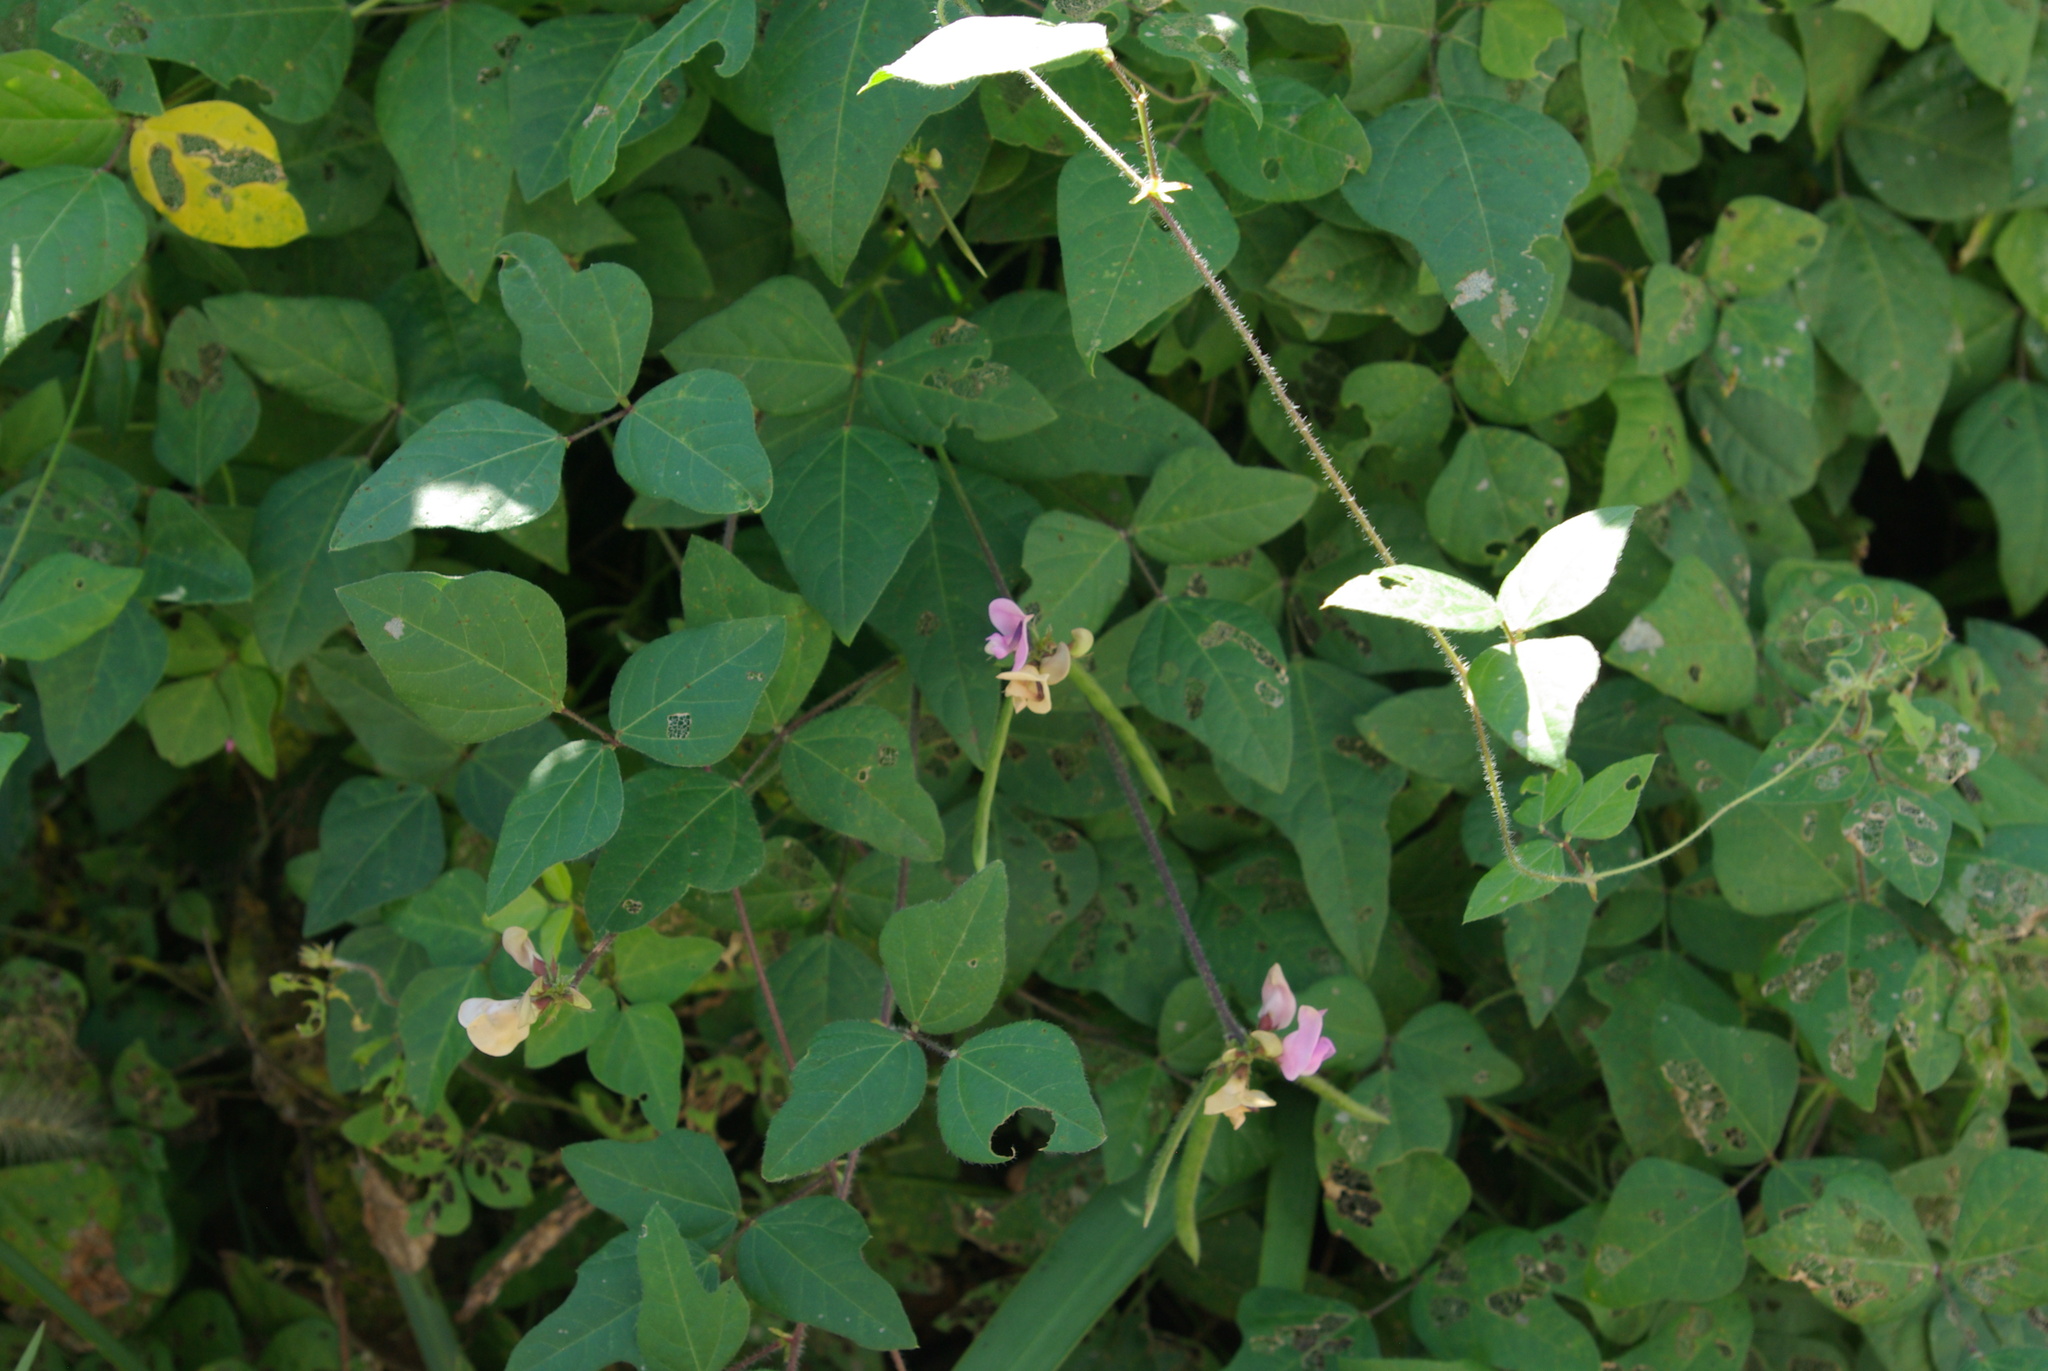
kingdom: Plantae
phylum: Tracheophyta
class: Magnoliopsida
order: Fabales
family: Fabaceae
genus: Strophostyles
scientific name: Strophostyles helvola
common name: Trailing wild bean
